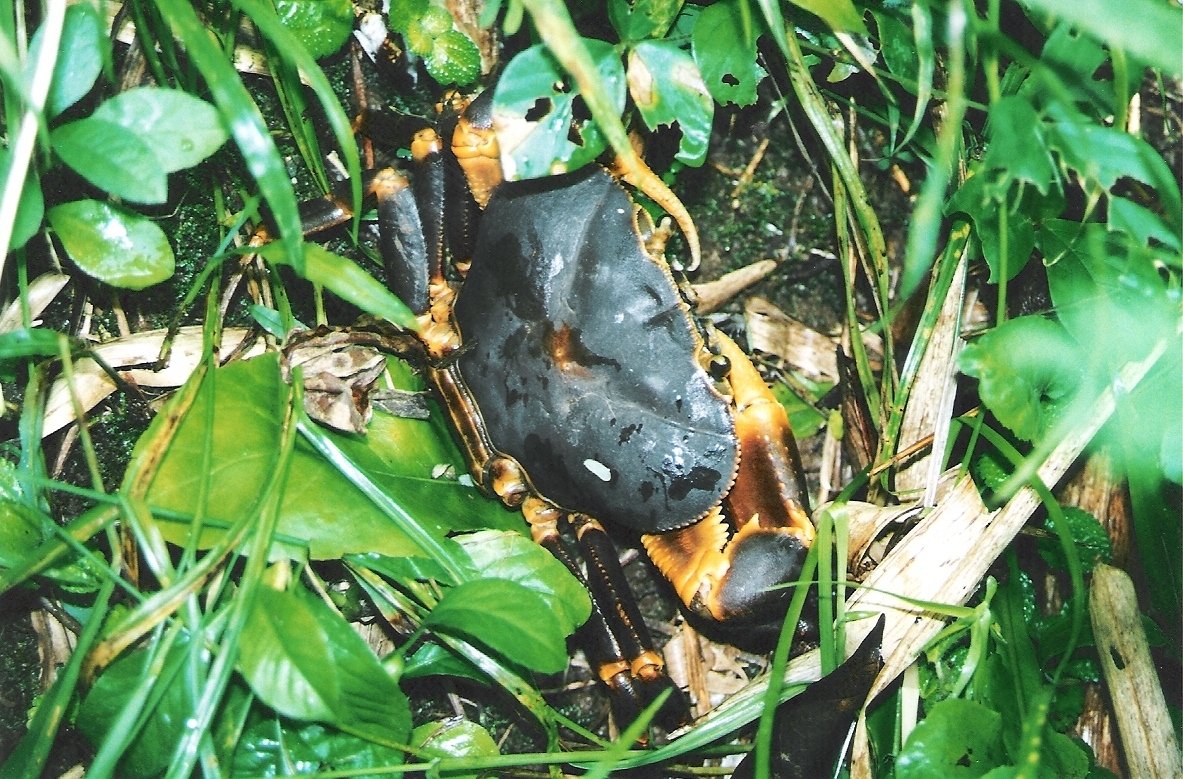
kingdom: Animalia
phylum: Arthropoda
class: Malacostraca
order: Decapoda
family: Pseudothelphusidae
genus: Guinotia
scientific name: Guinotia dentata
